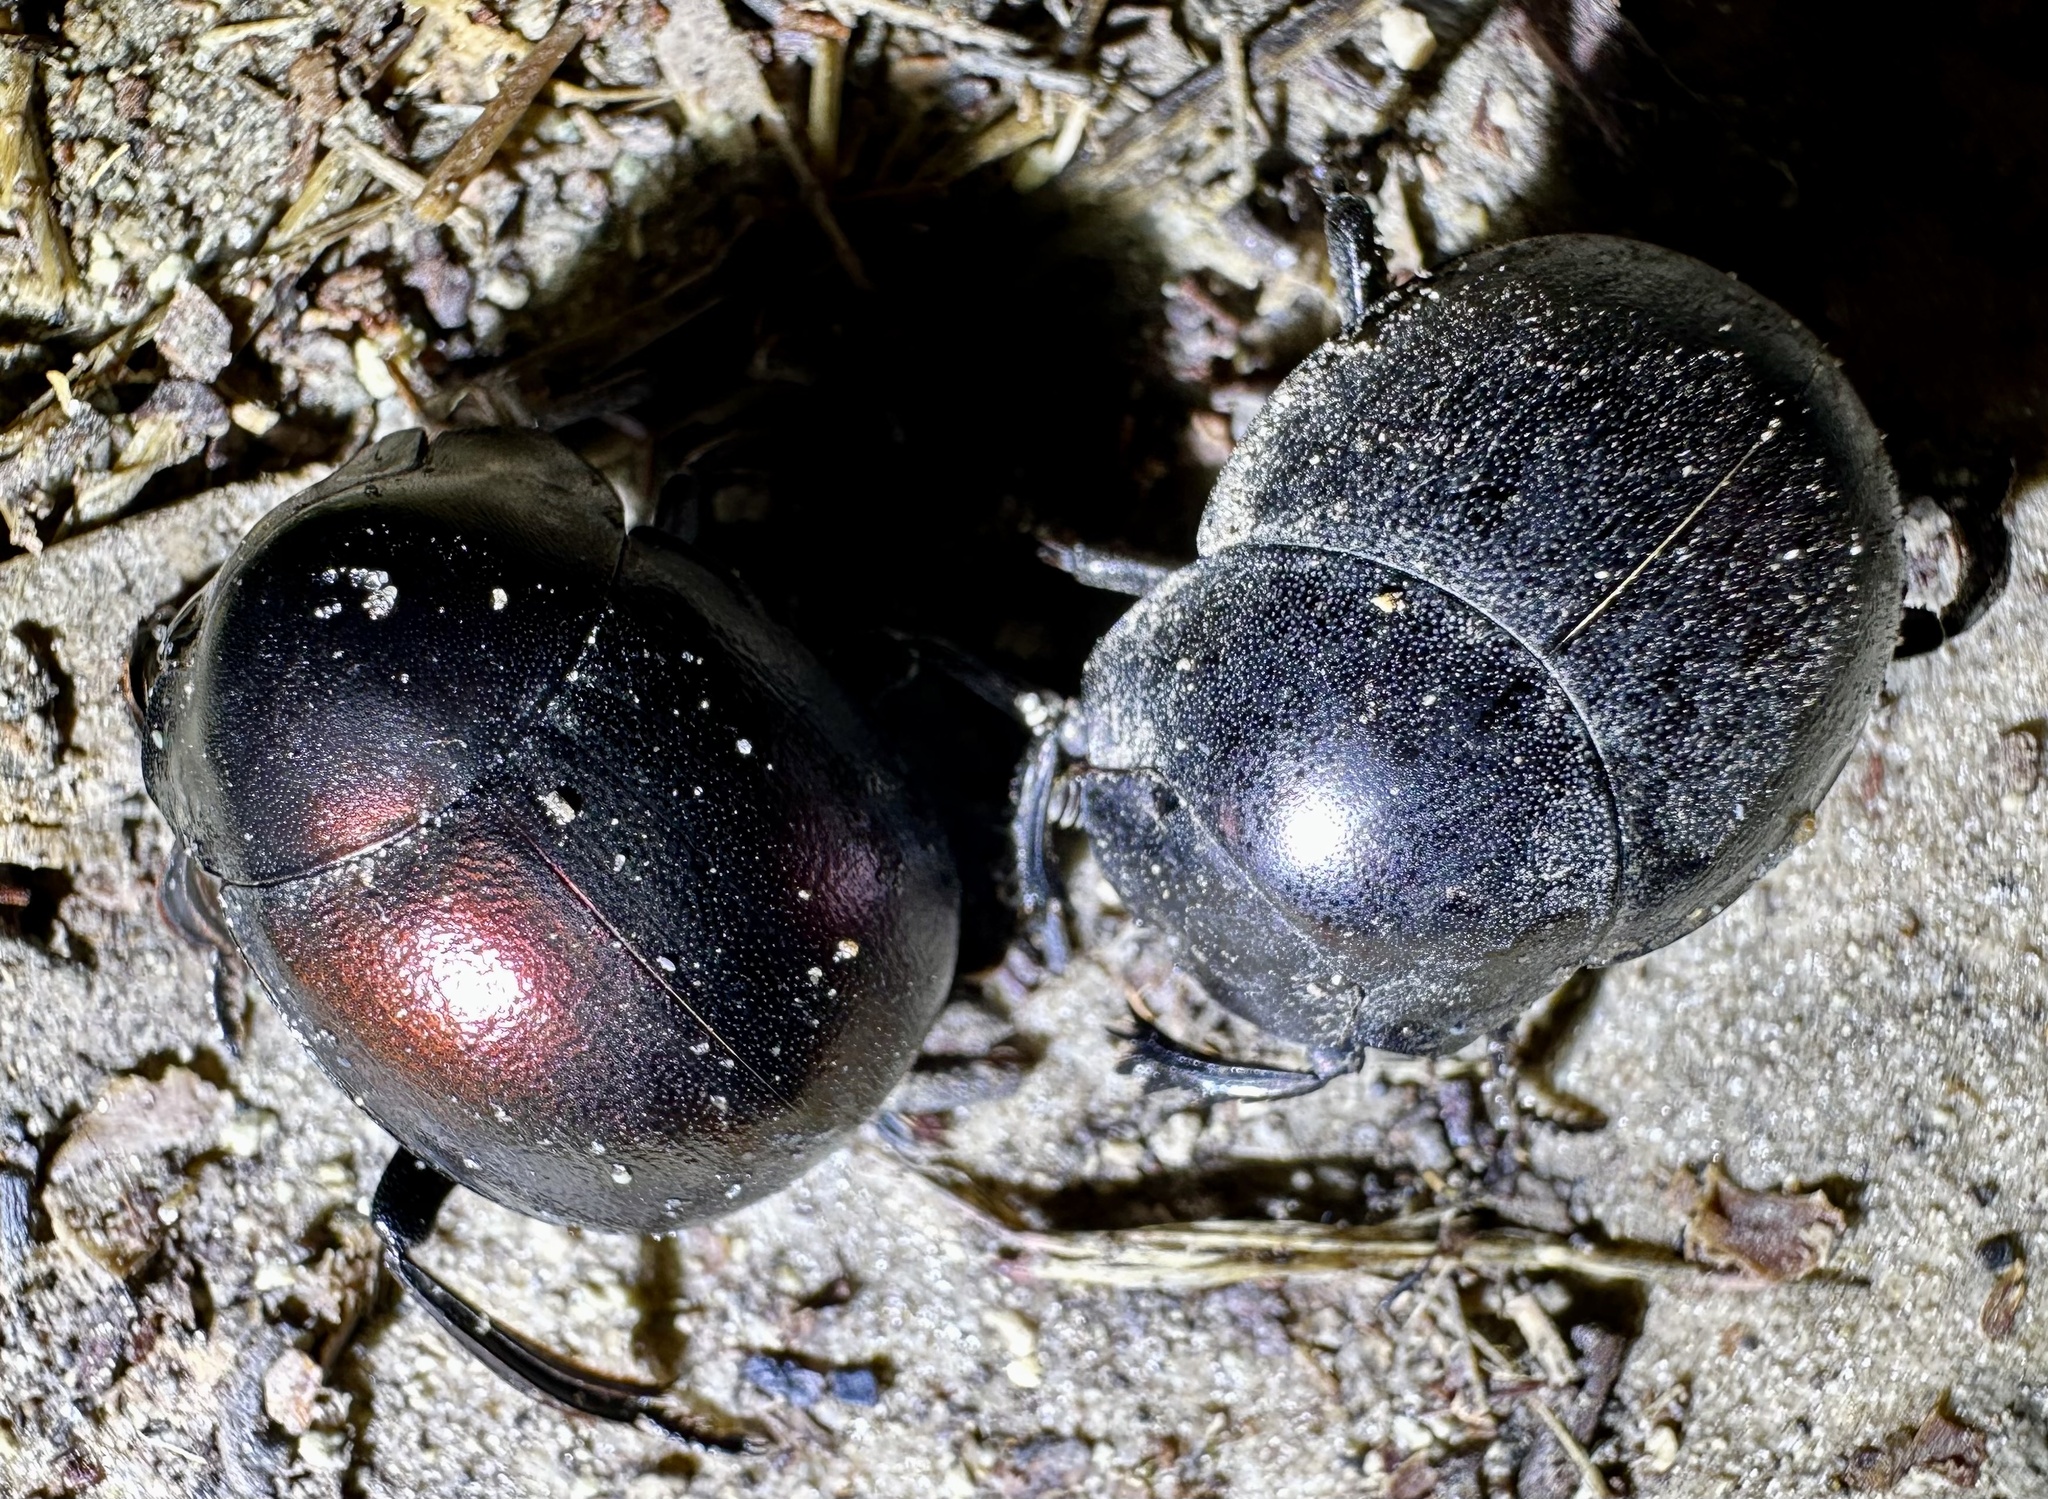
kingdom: Animalia
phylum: Arthropoda
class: Insecta
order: Coleoptera
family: Scarabaeidae
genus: Chalconotus
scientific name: Chalconotus convexus
